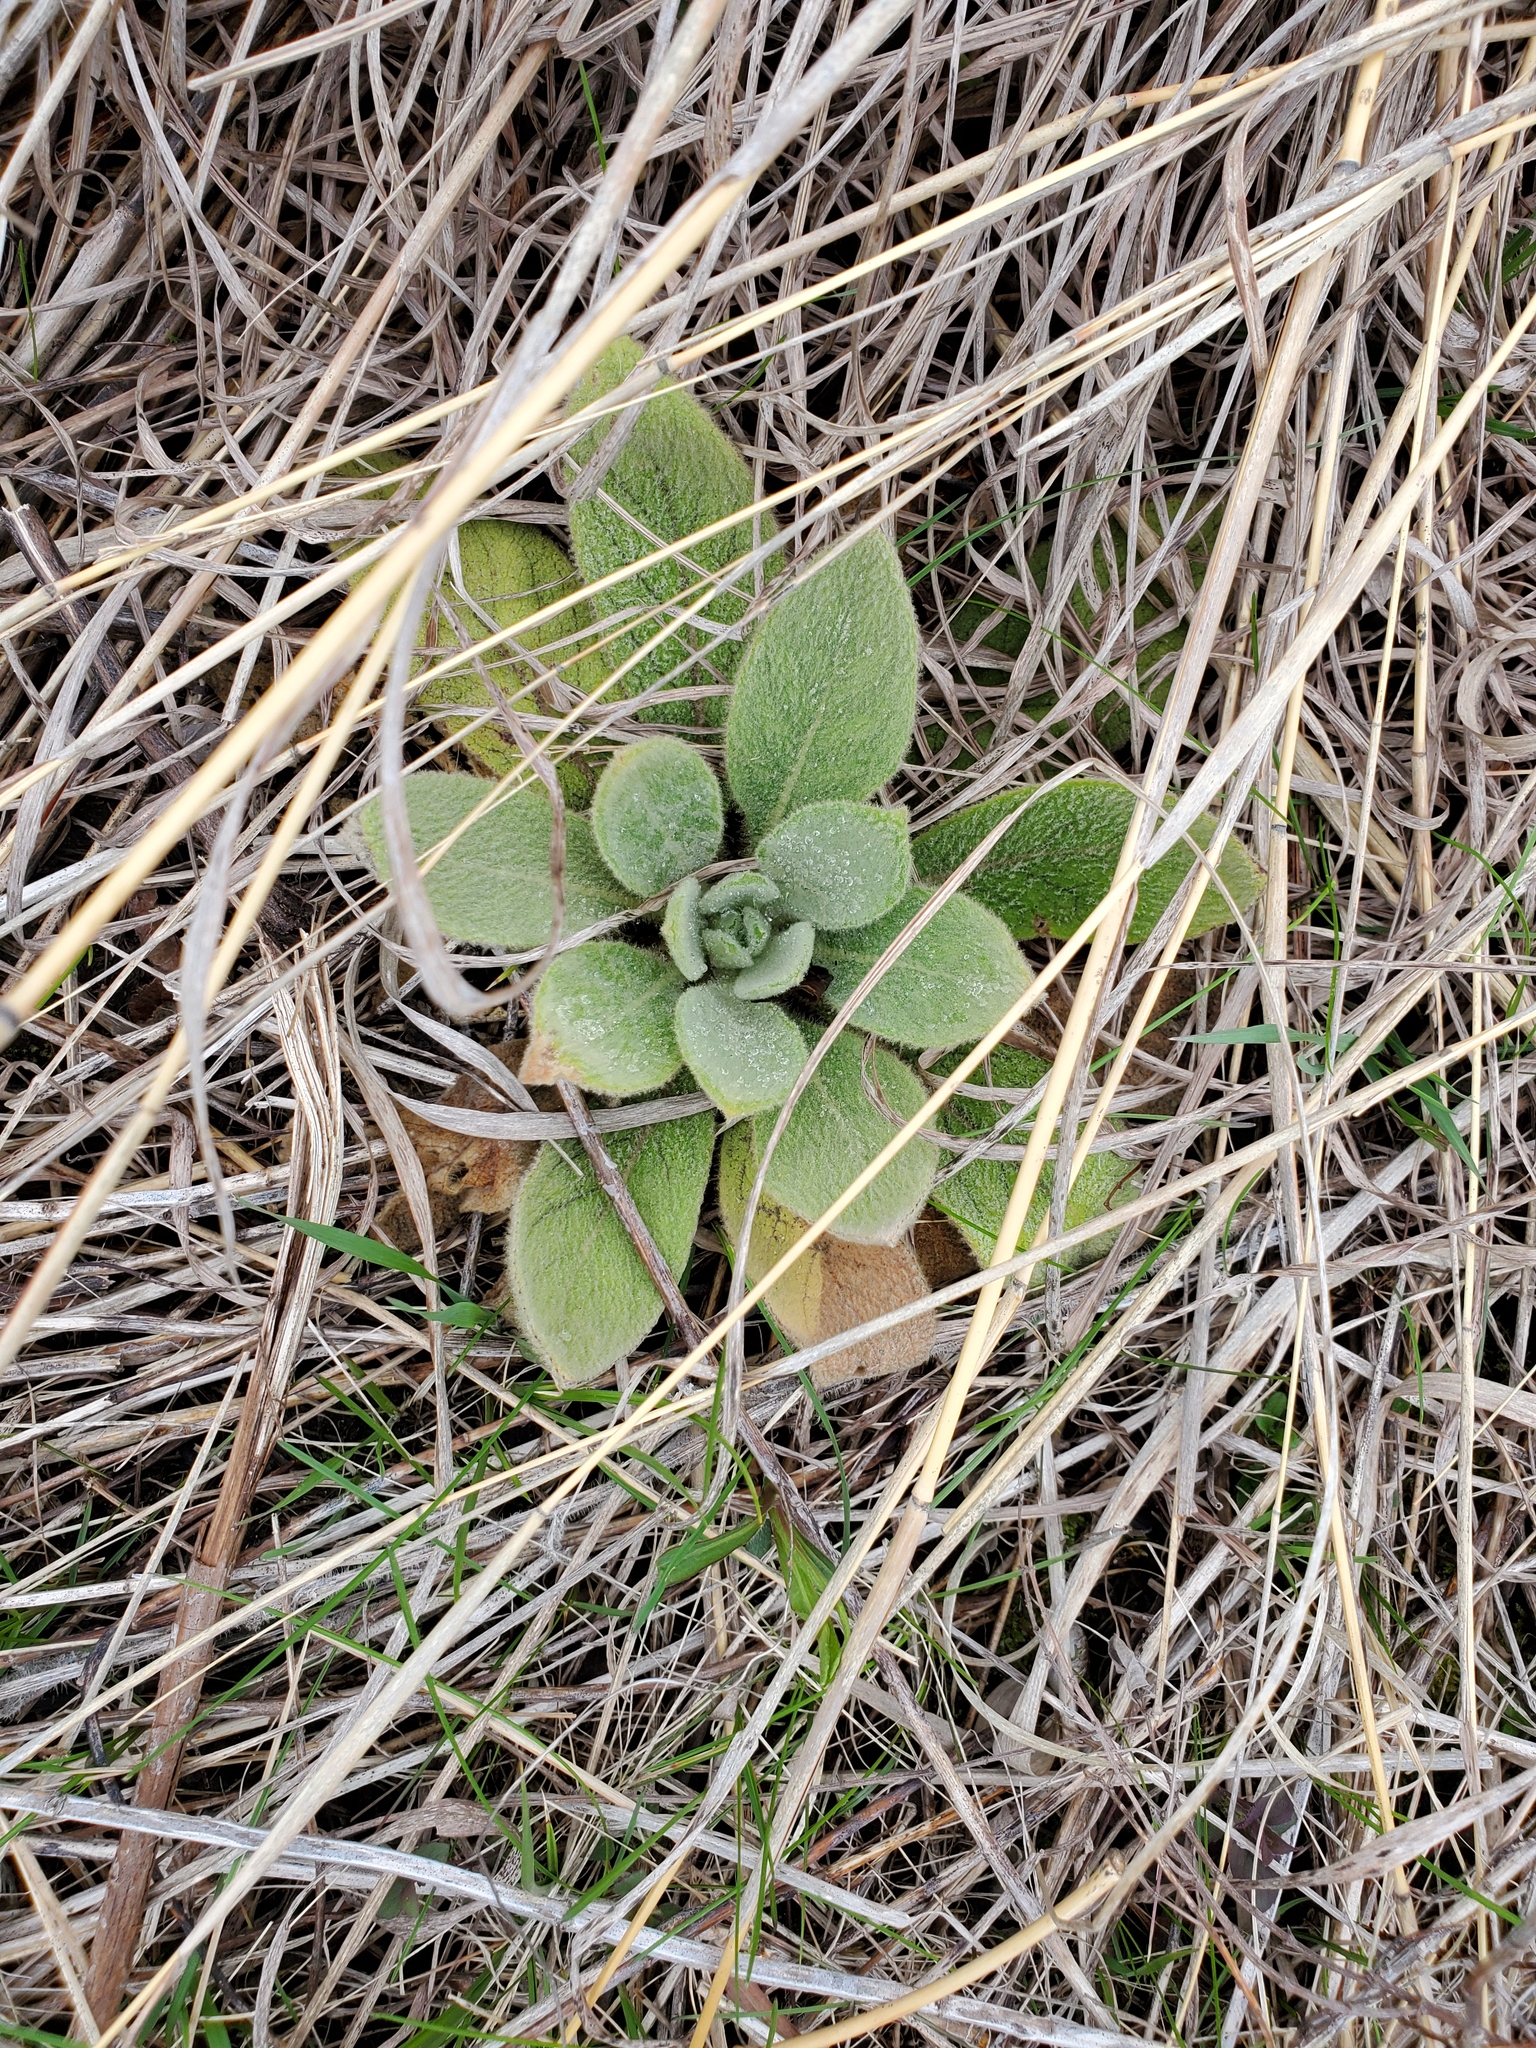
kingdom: Plantae
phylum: Tracheophyta
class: Magnoliopsida
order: Lamiales
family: Scrophulariaceae
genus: Verbascum
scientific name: Verbascum thapsus
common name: Common mullein
